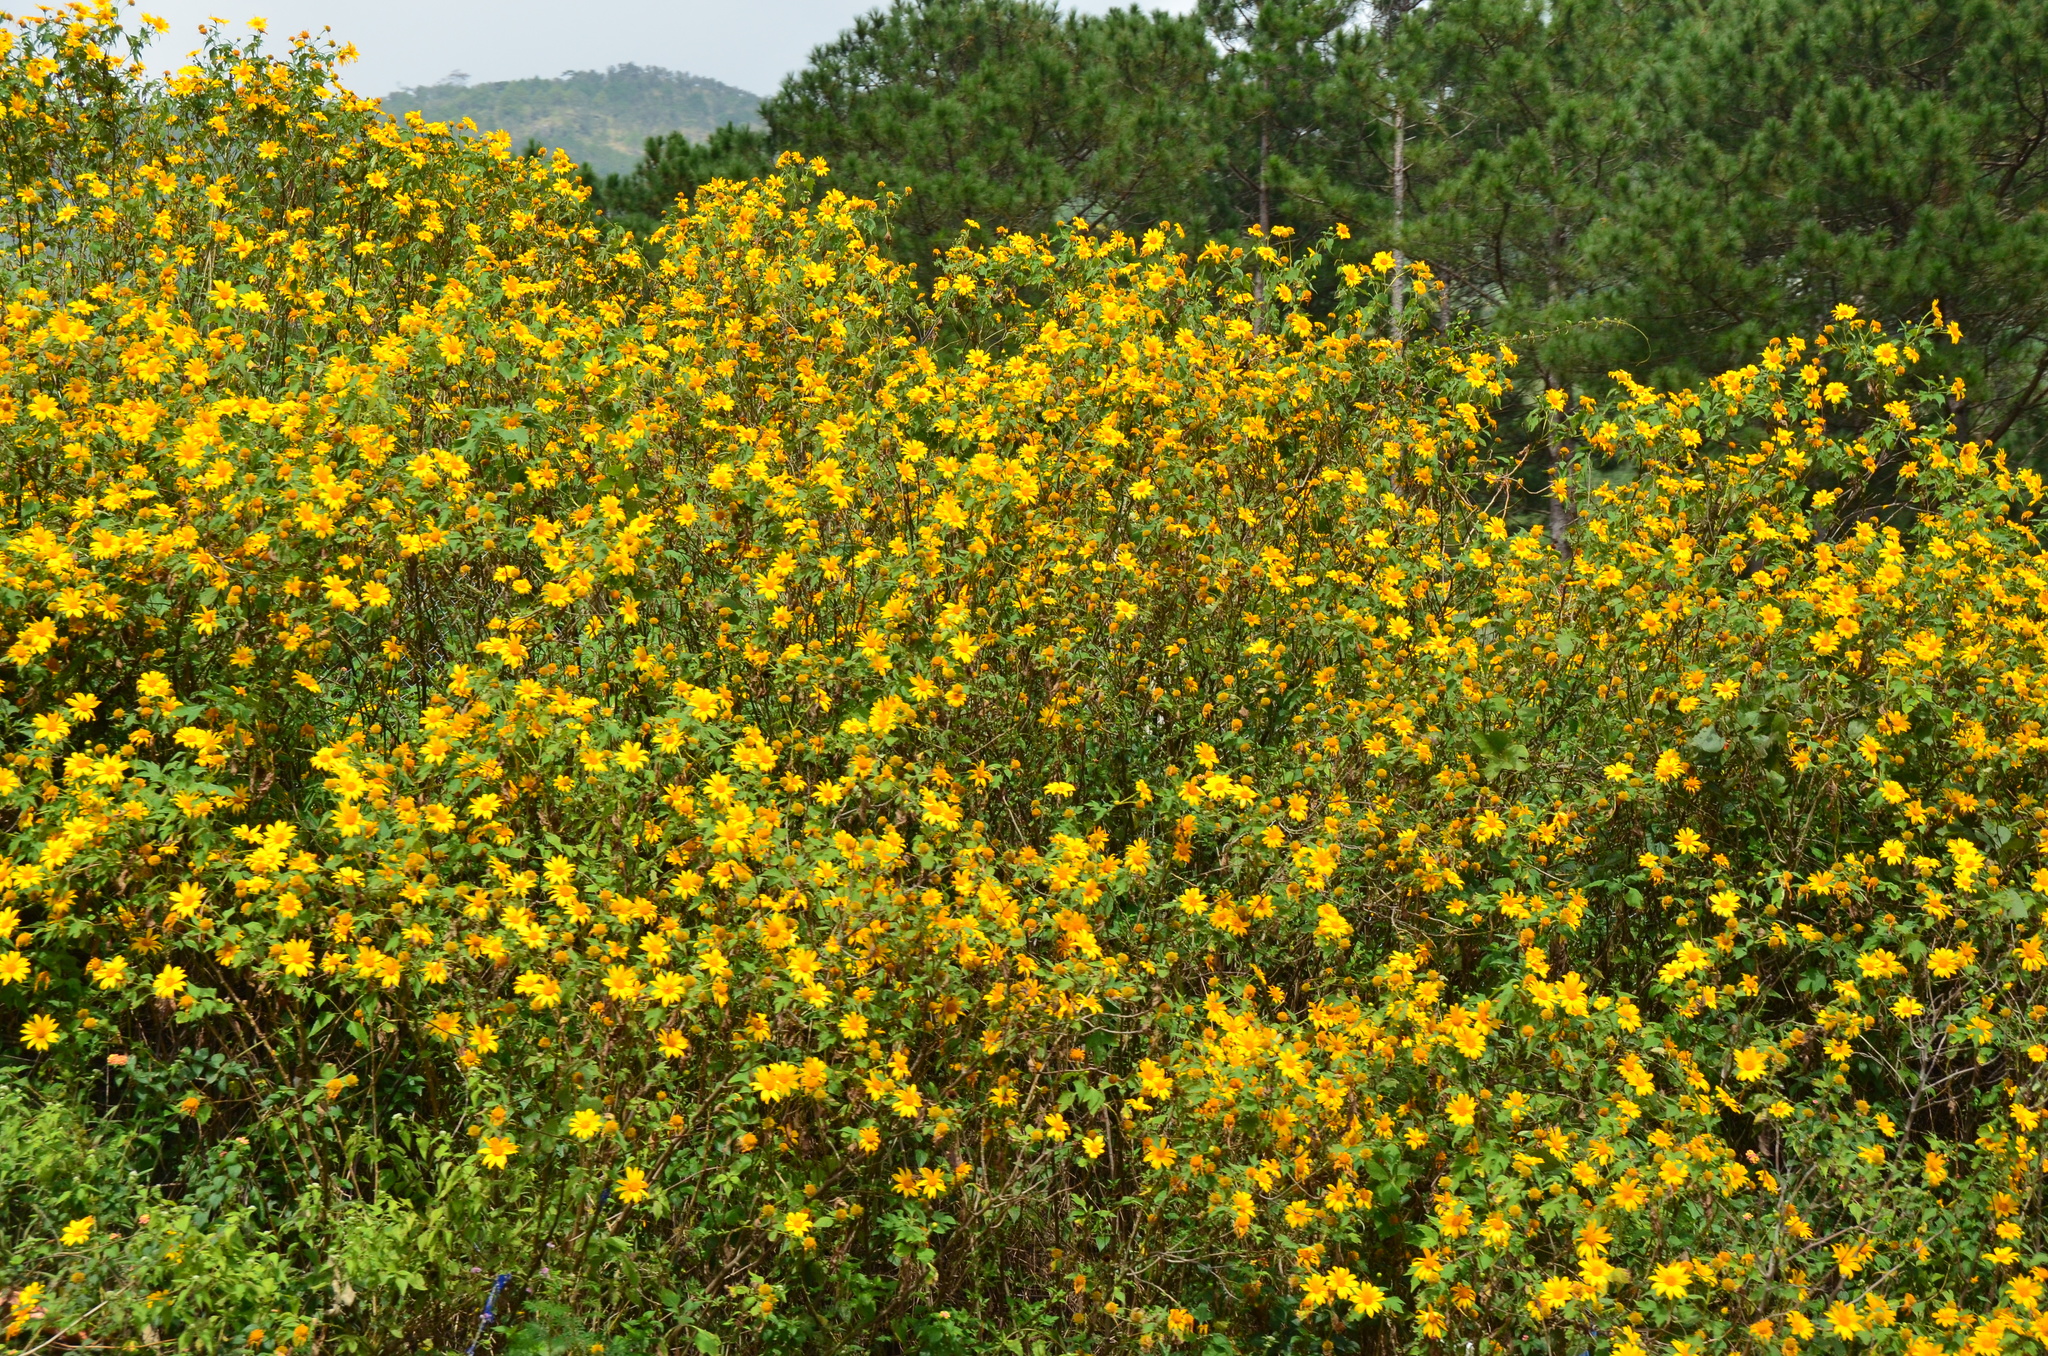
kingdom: Plantae
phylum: Tracheophyta
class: Magnoliopsida
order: Asterales
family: Asteraceae
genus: Tithonia
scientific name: Tithonia diversifolia
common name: Tree marigold
